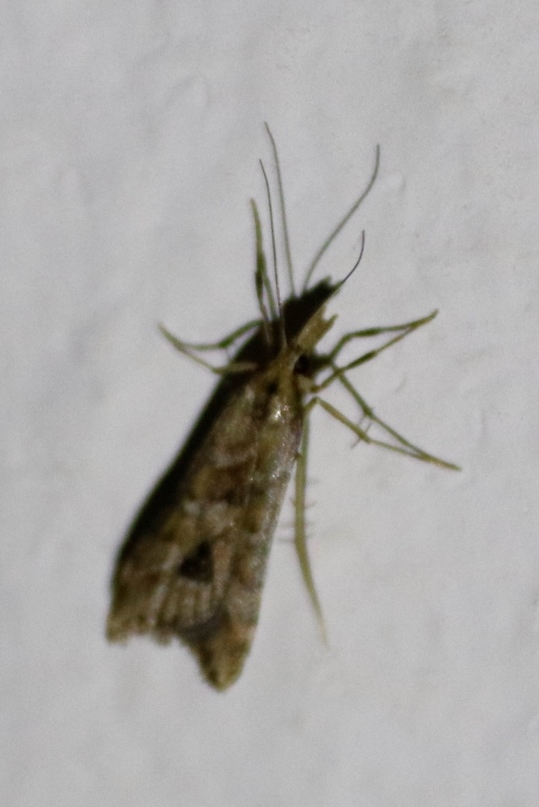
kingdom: Animalia
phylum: Arthropoda
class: Insecta
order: Lepidoptera
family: Crambidae
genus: Diasemia
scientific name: Diasemia monostigma
